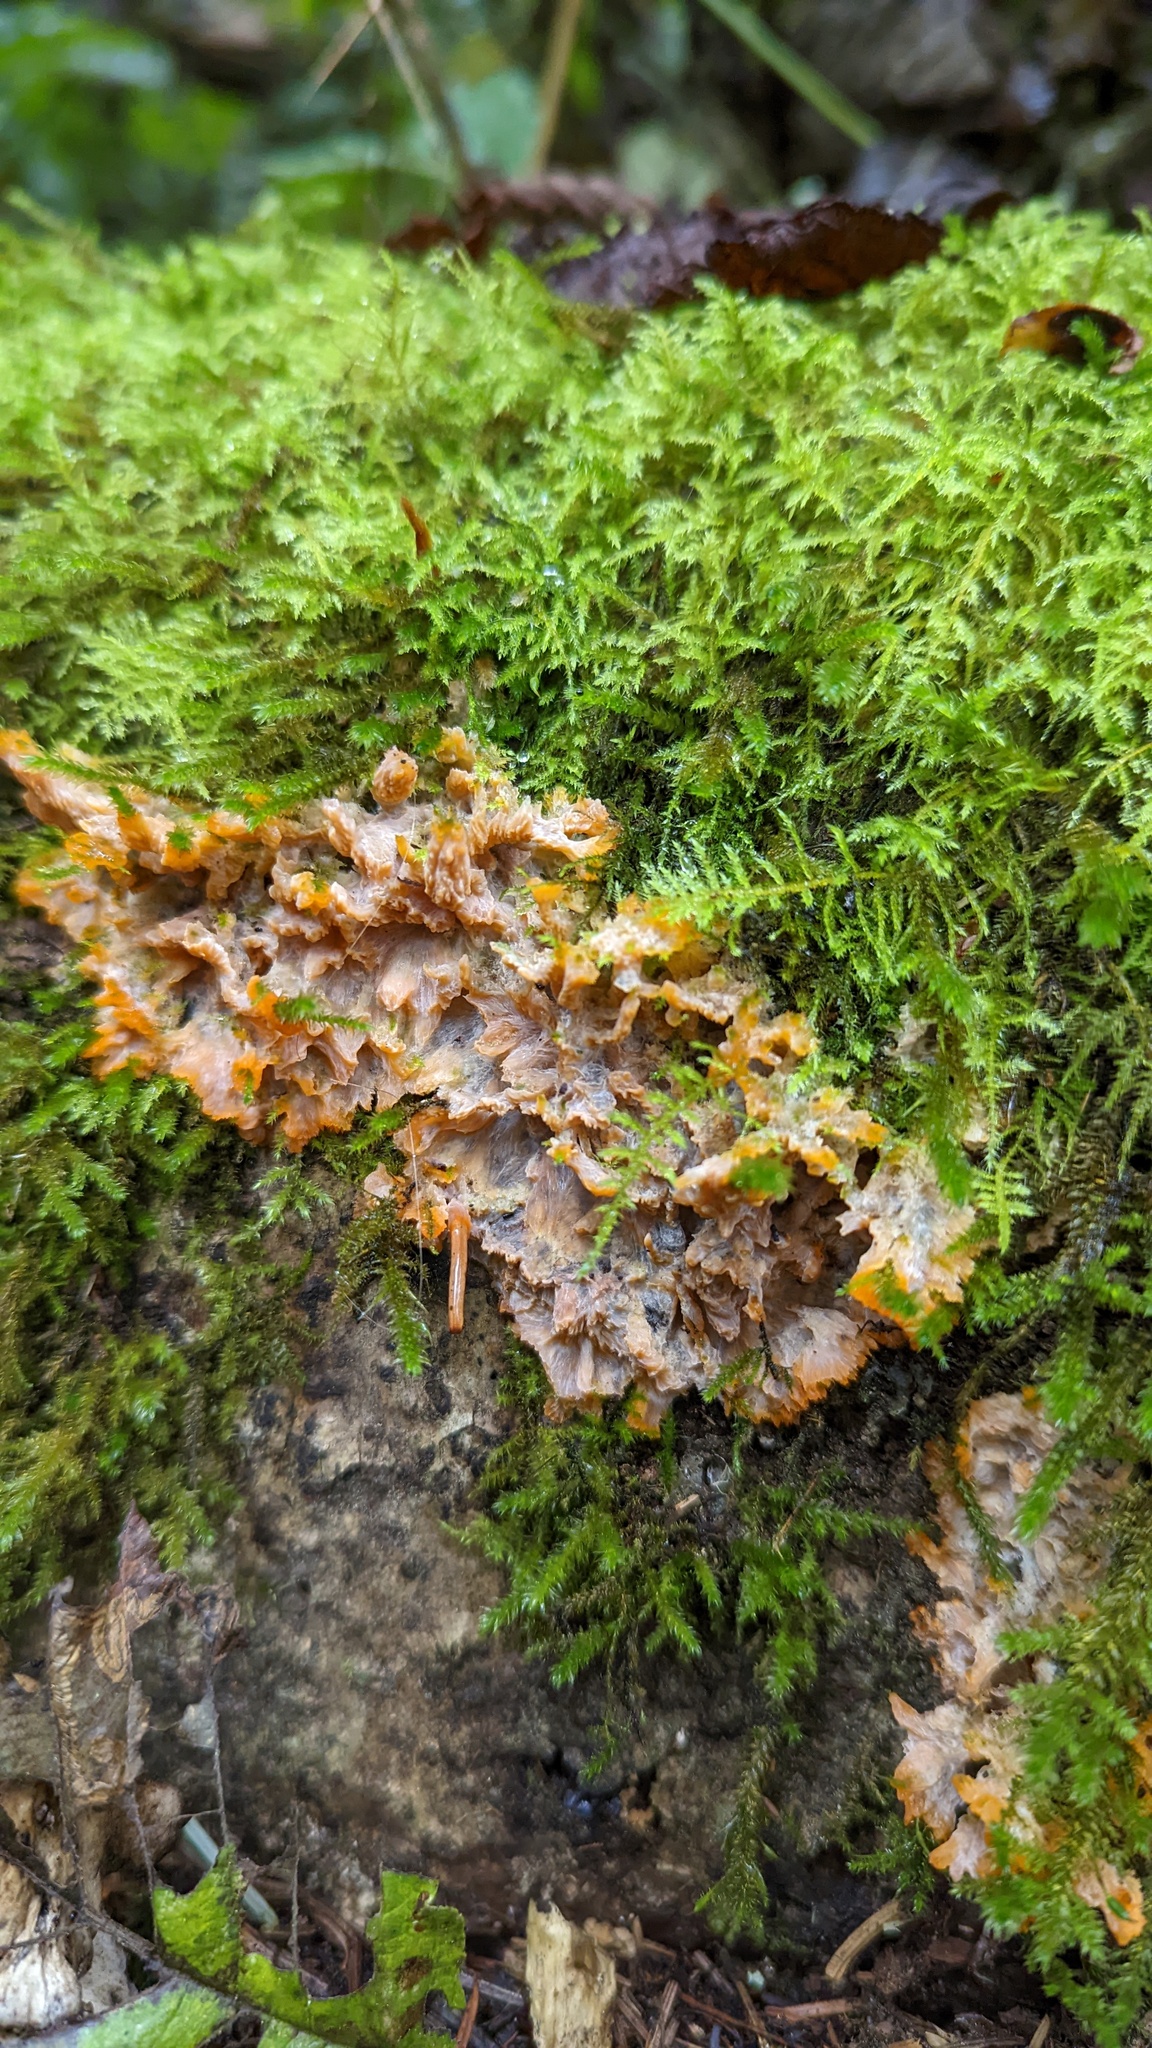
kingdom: Fungi
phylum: Basidiomycota
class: Agaricomycetes
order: Polyporales
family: Meruliaceae
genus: Phlebia
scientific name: Phlebia radiata
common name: Wrinkled crust
